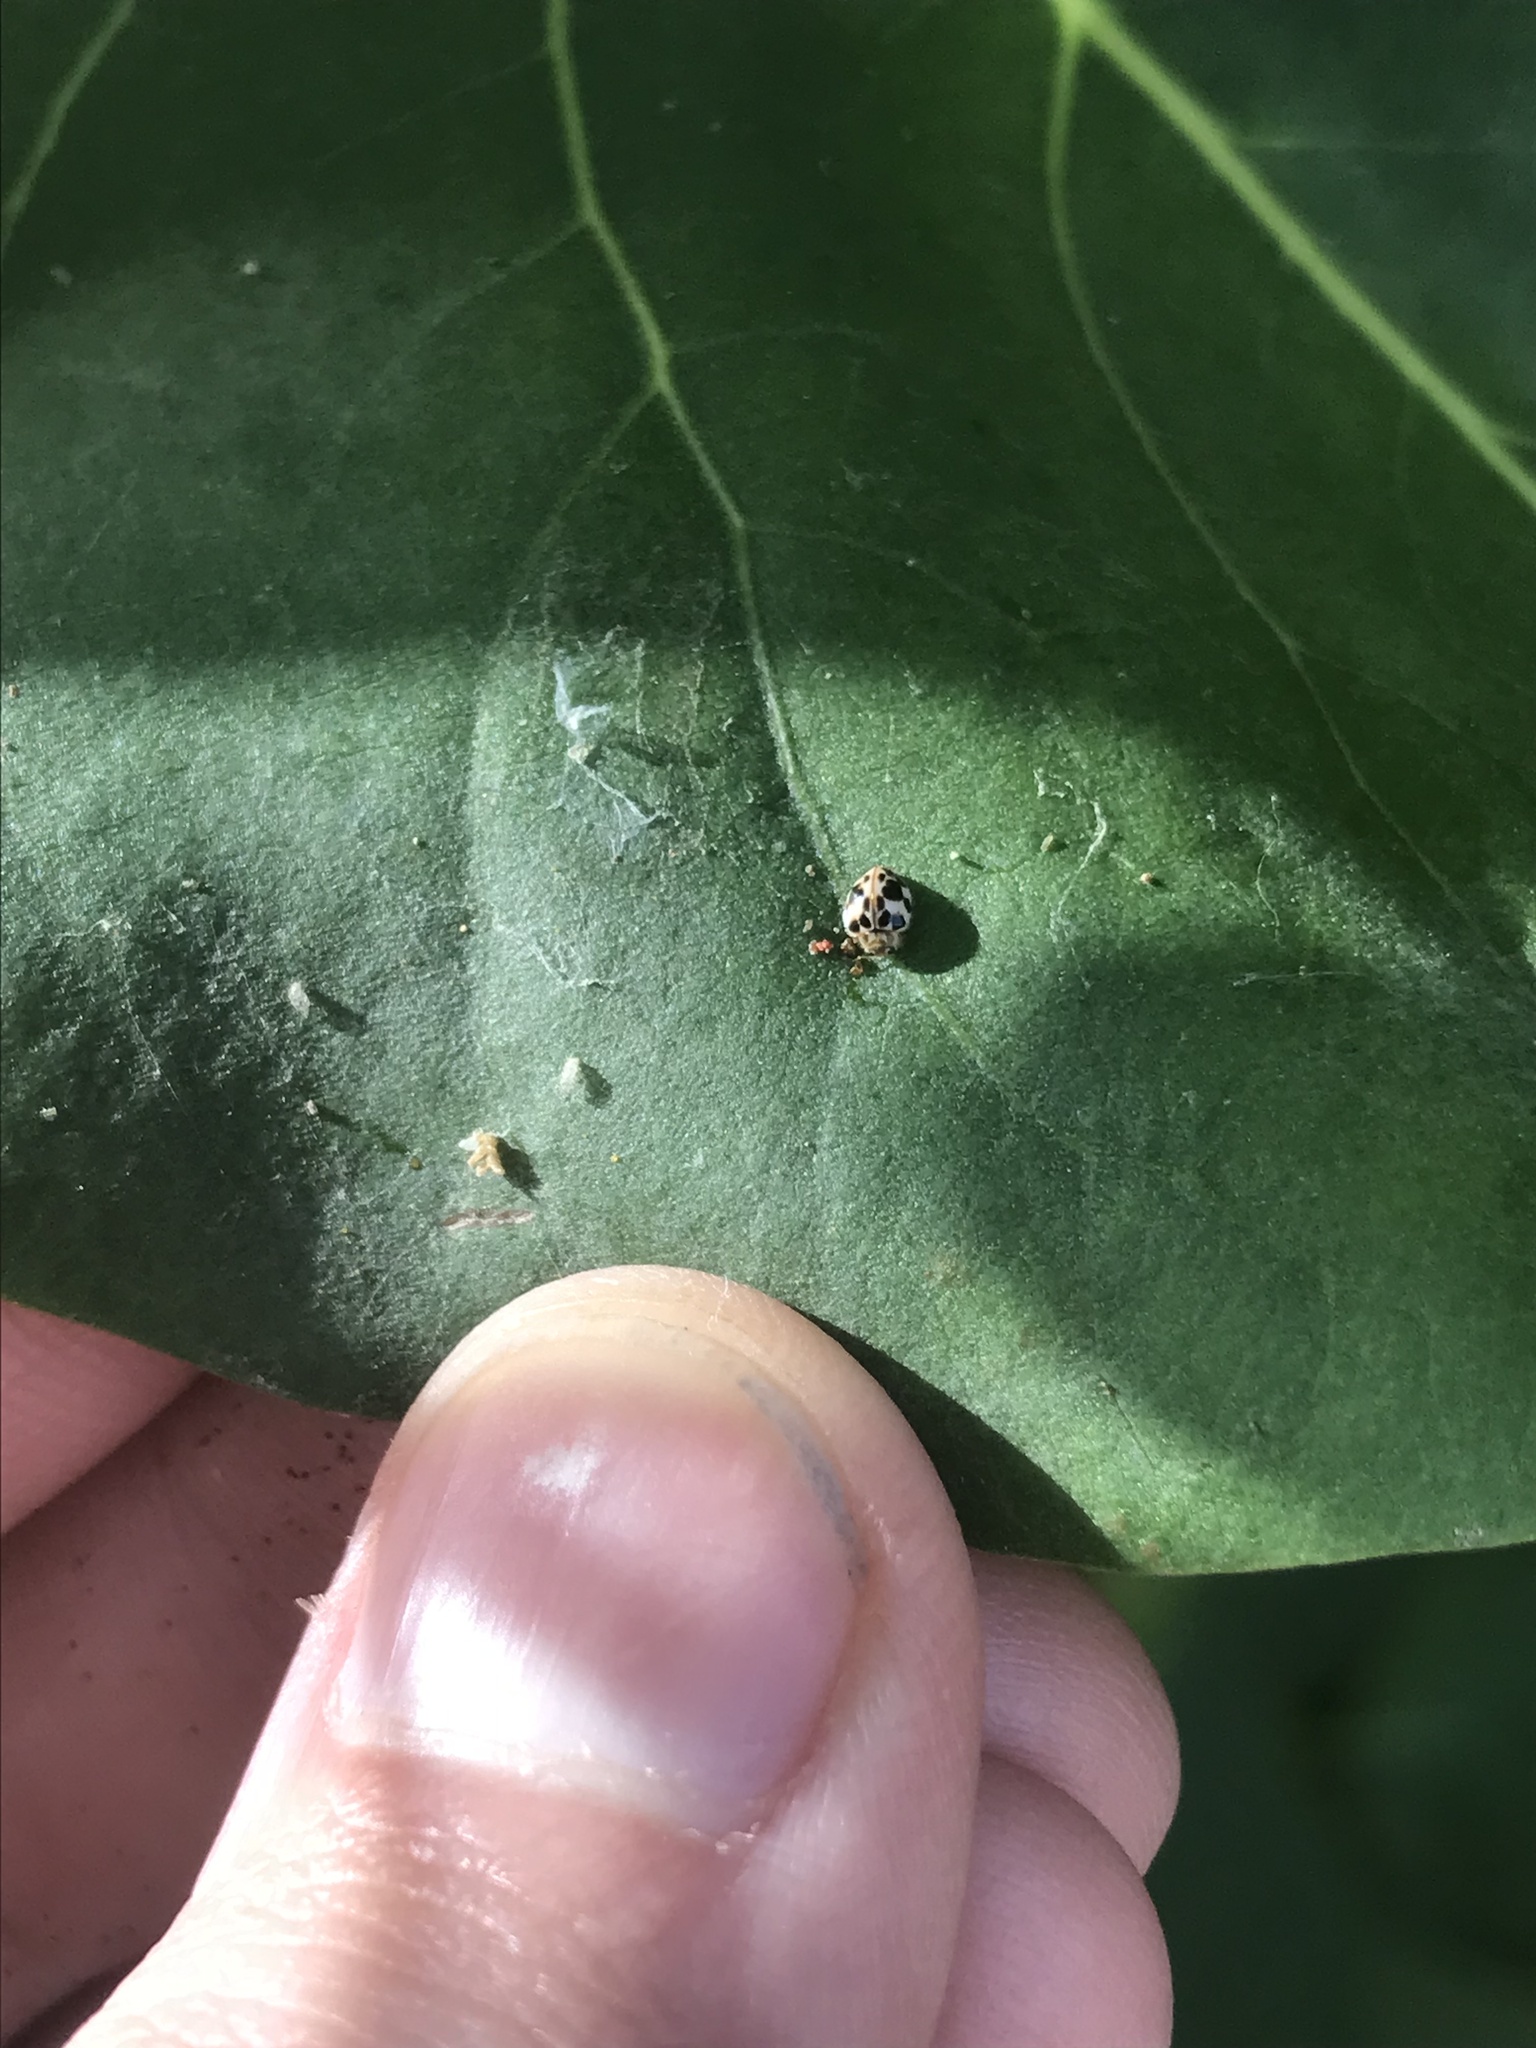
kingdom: Animalia
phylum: Arthropoda
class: Insecta
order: Coleoptera
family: Coccinellidae
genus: Psyllobora
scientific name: Psyllobora borealis
